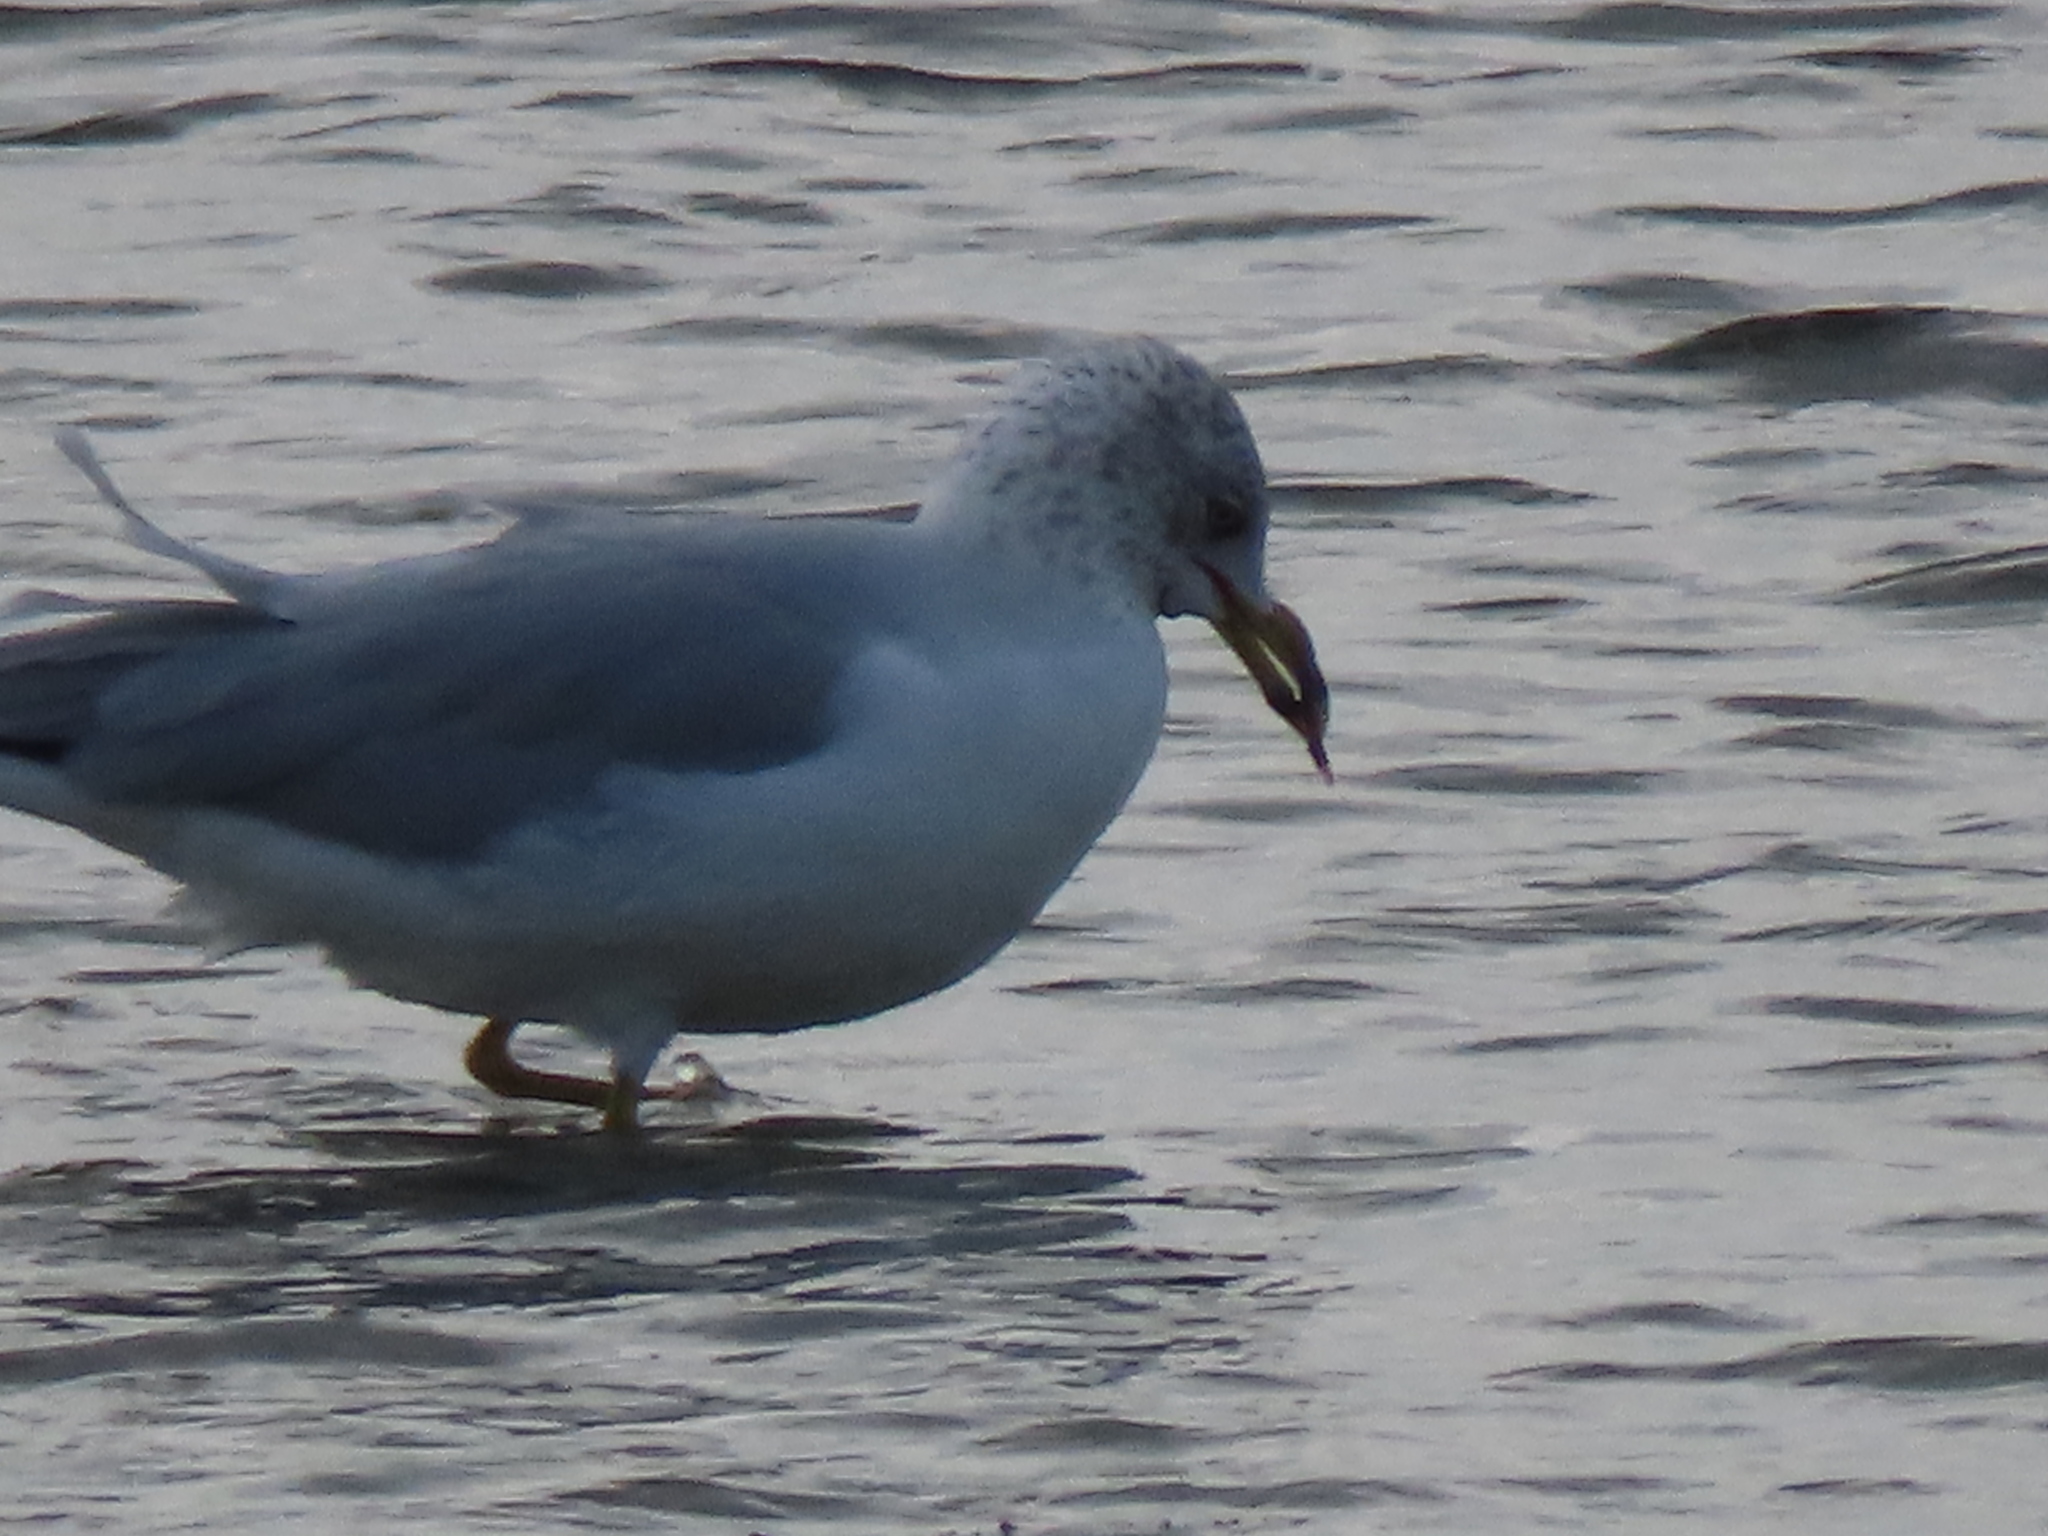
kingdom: Animalia
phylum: Chordata
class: Aves
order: Charadriiformes
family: Laridae
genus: Larus
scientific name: Larus delawarensis
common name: Ring-billed gull
